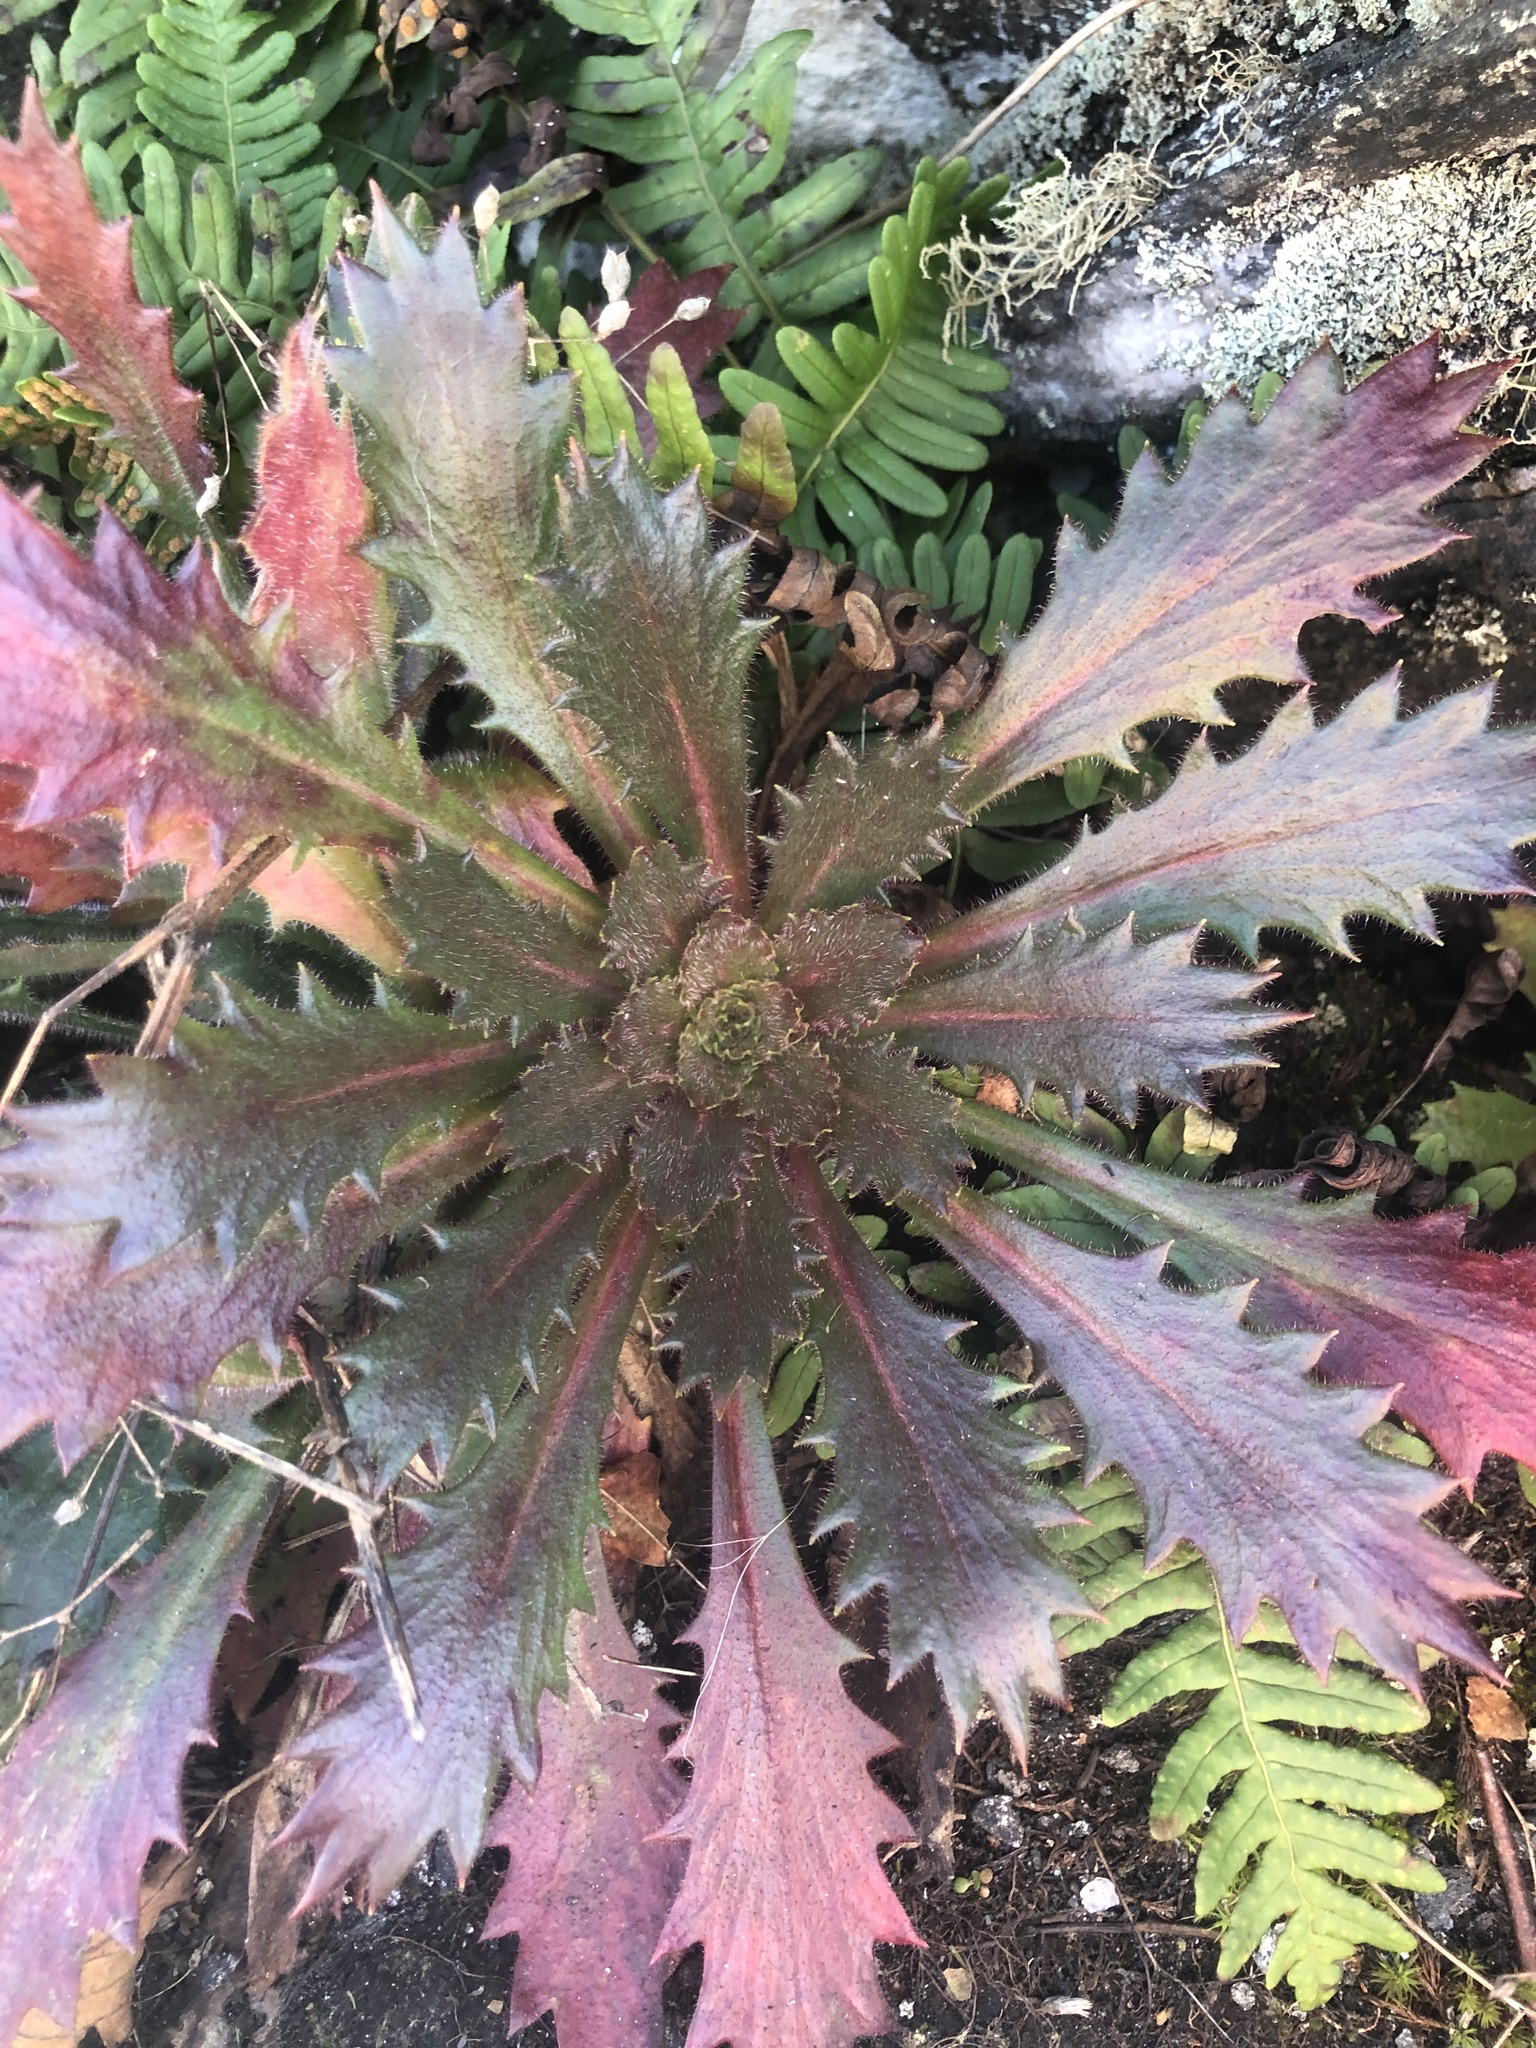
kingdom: Plantae
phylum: Tracheophyta
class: Magnoliopsida
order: Saxifragales
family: Saxifragaceae
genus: Micranthes
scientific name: Micranthes petiolaris
